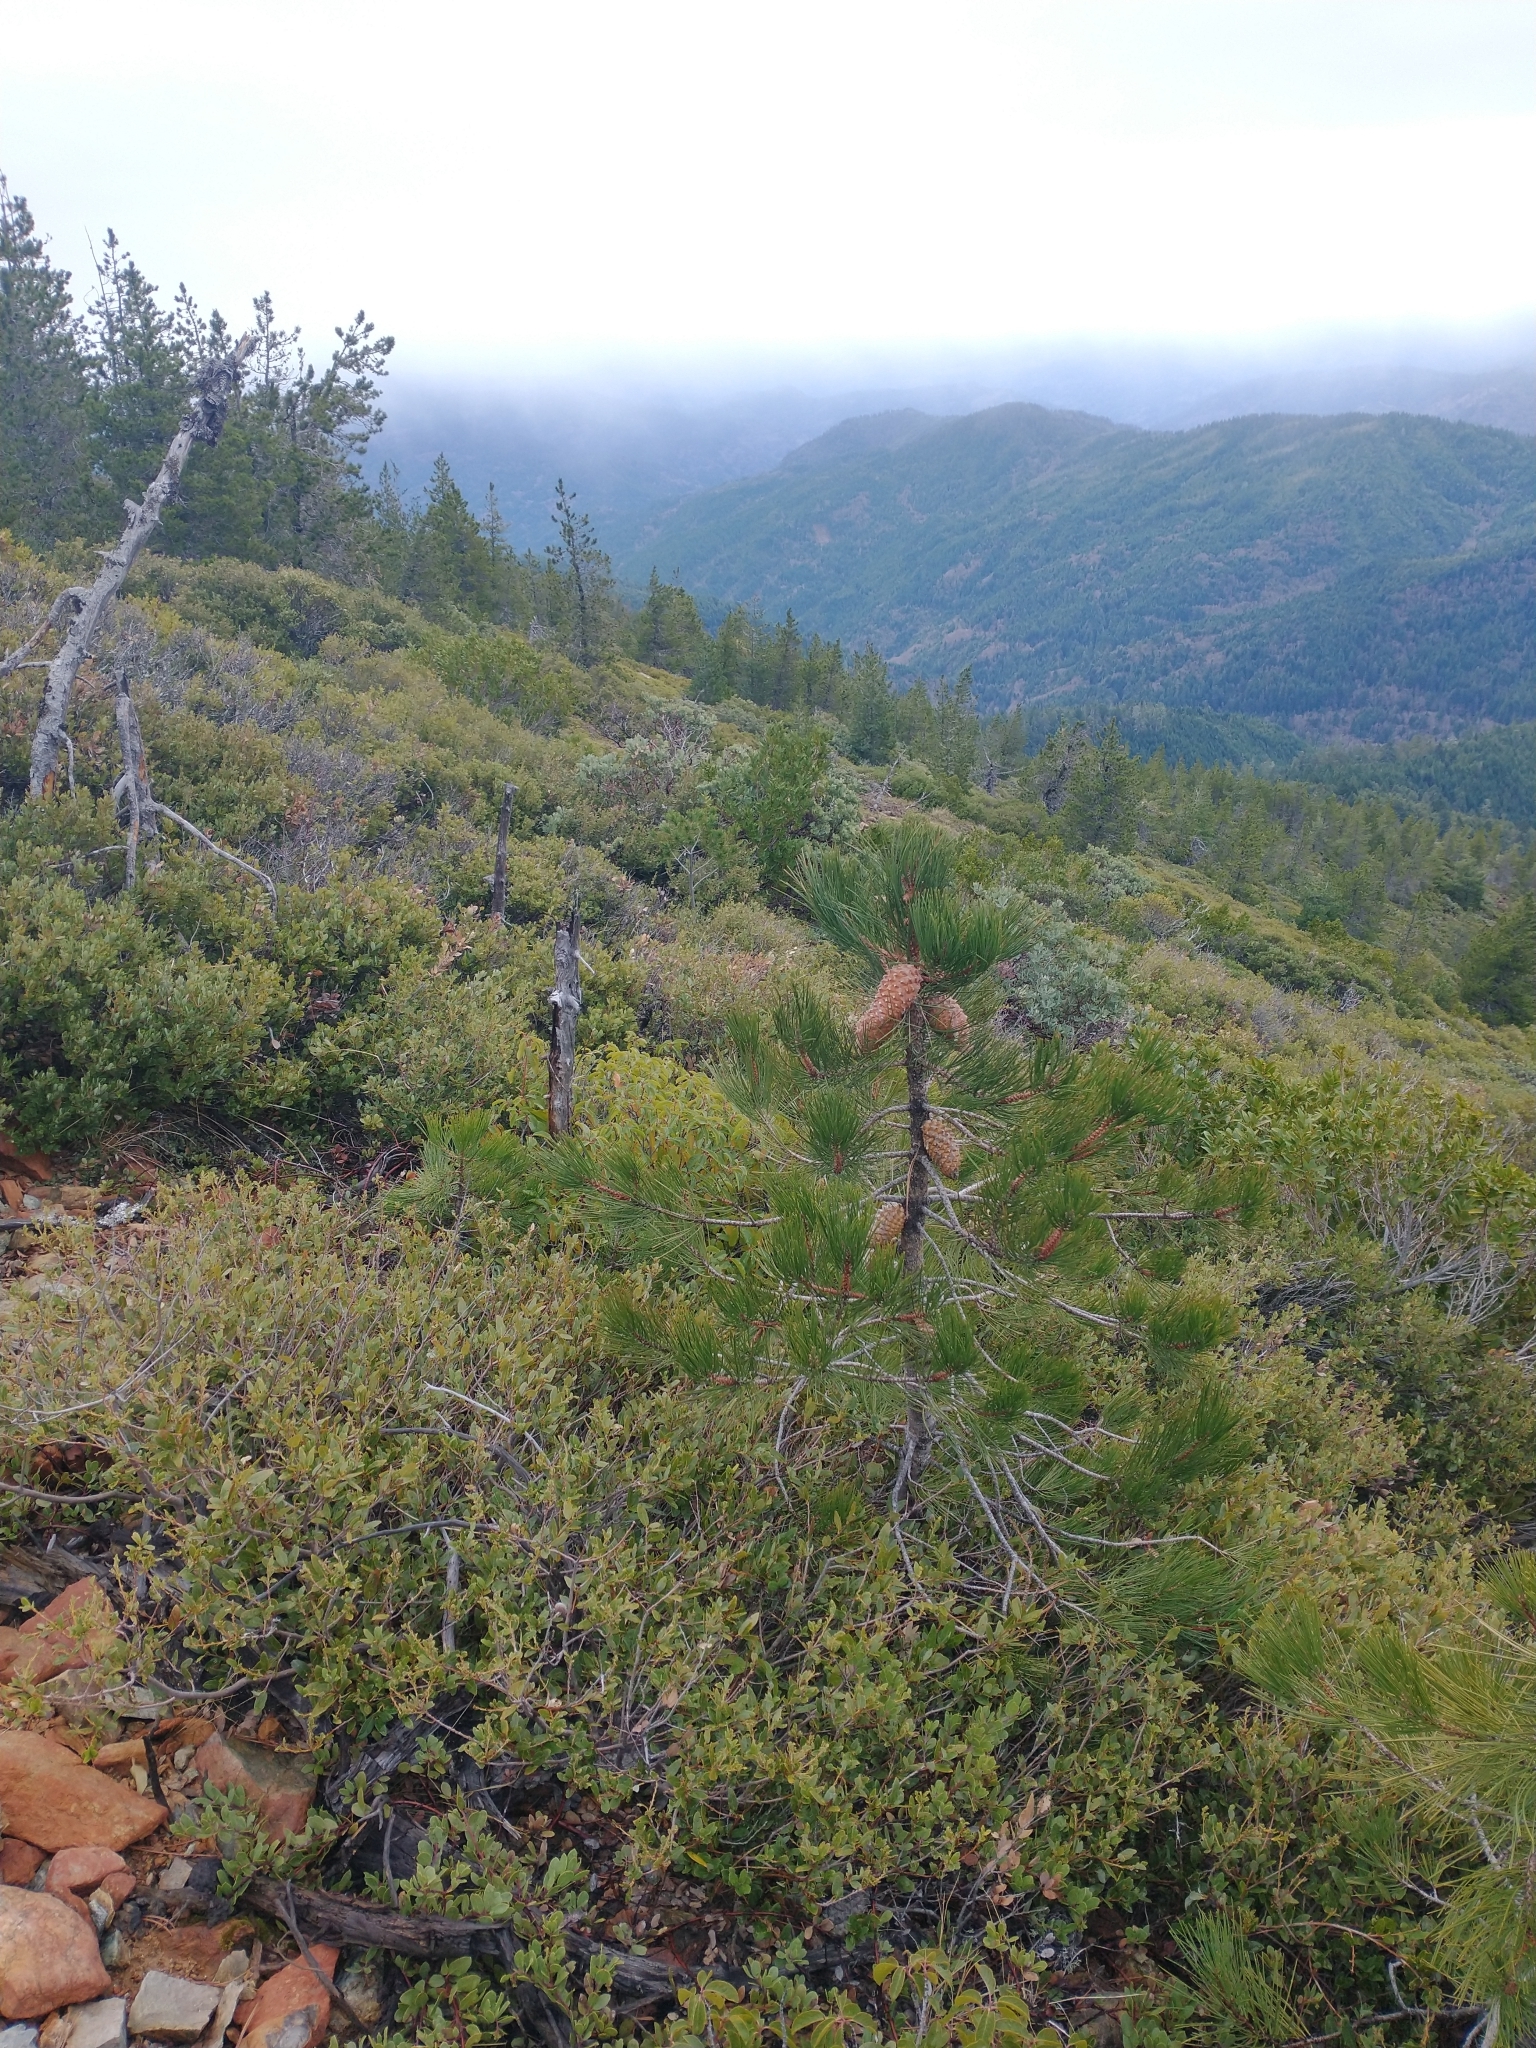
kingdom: Plantae
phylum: Tracheophyta
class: Pinopsida
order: Pinales
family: Pinaceae
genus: Pinus
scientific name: Pinus attenuata
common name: Knobcone pine
